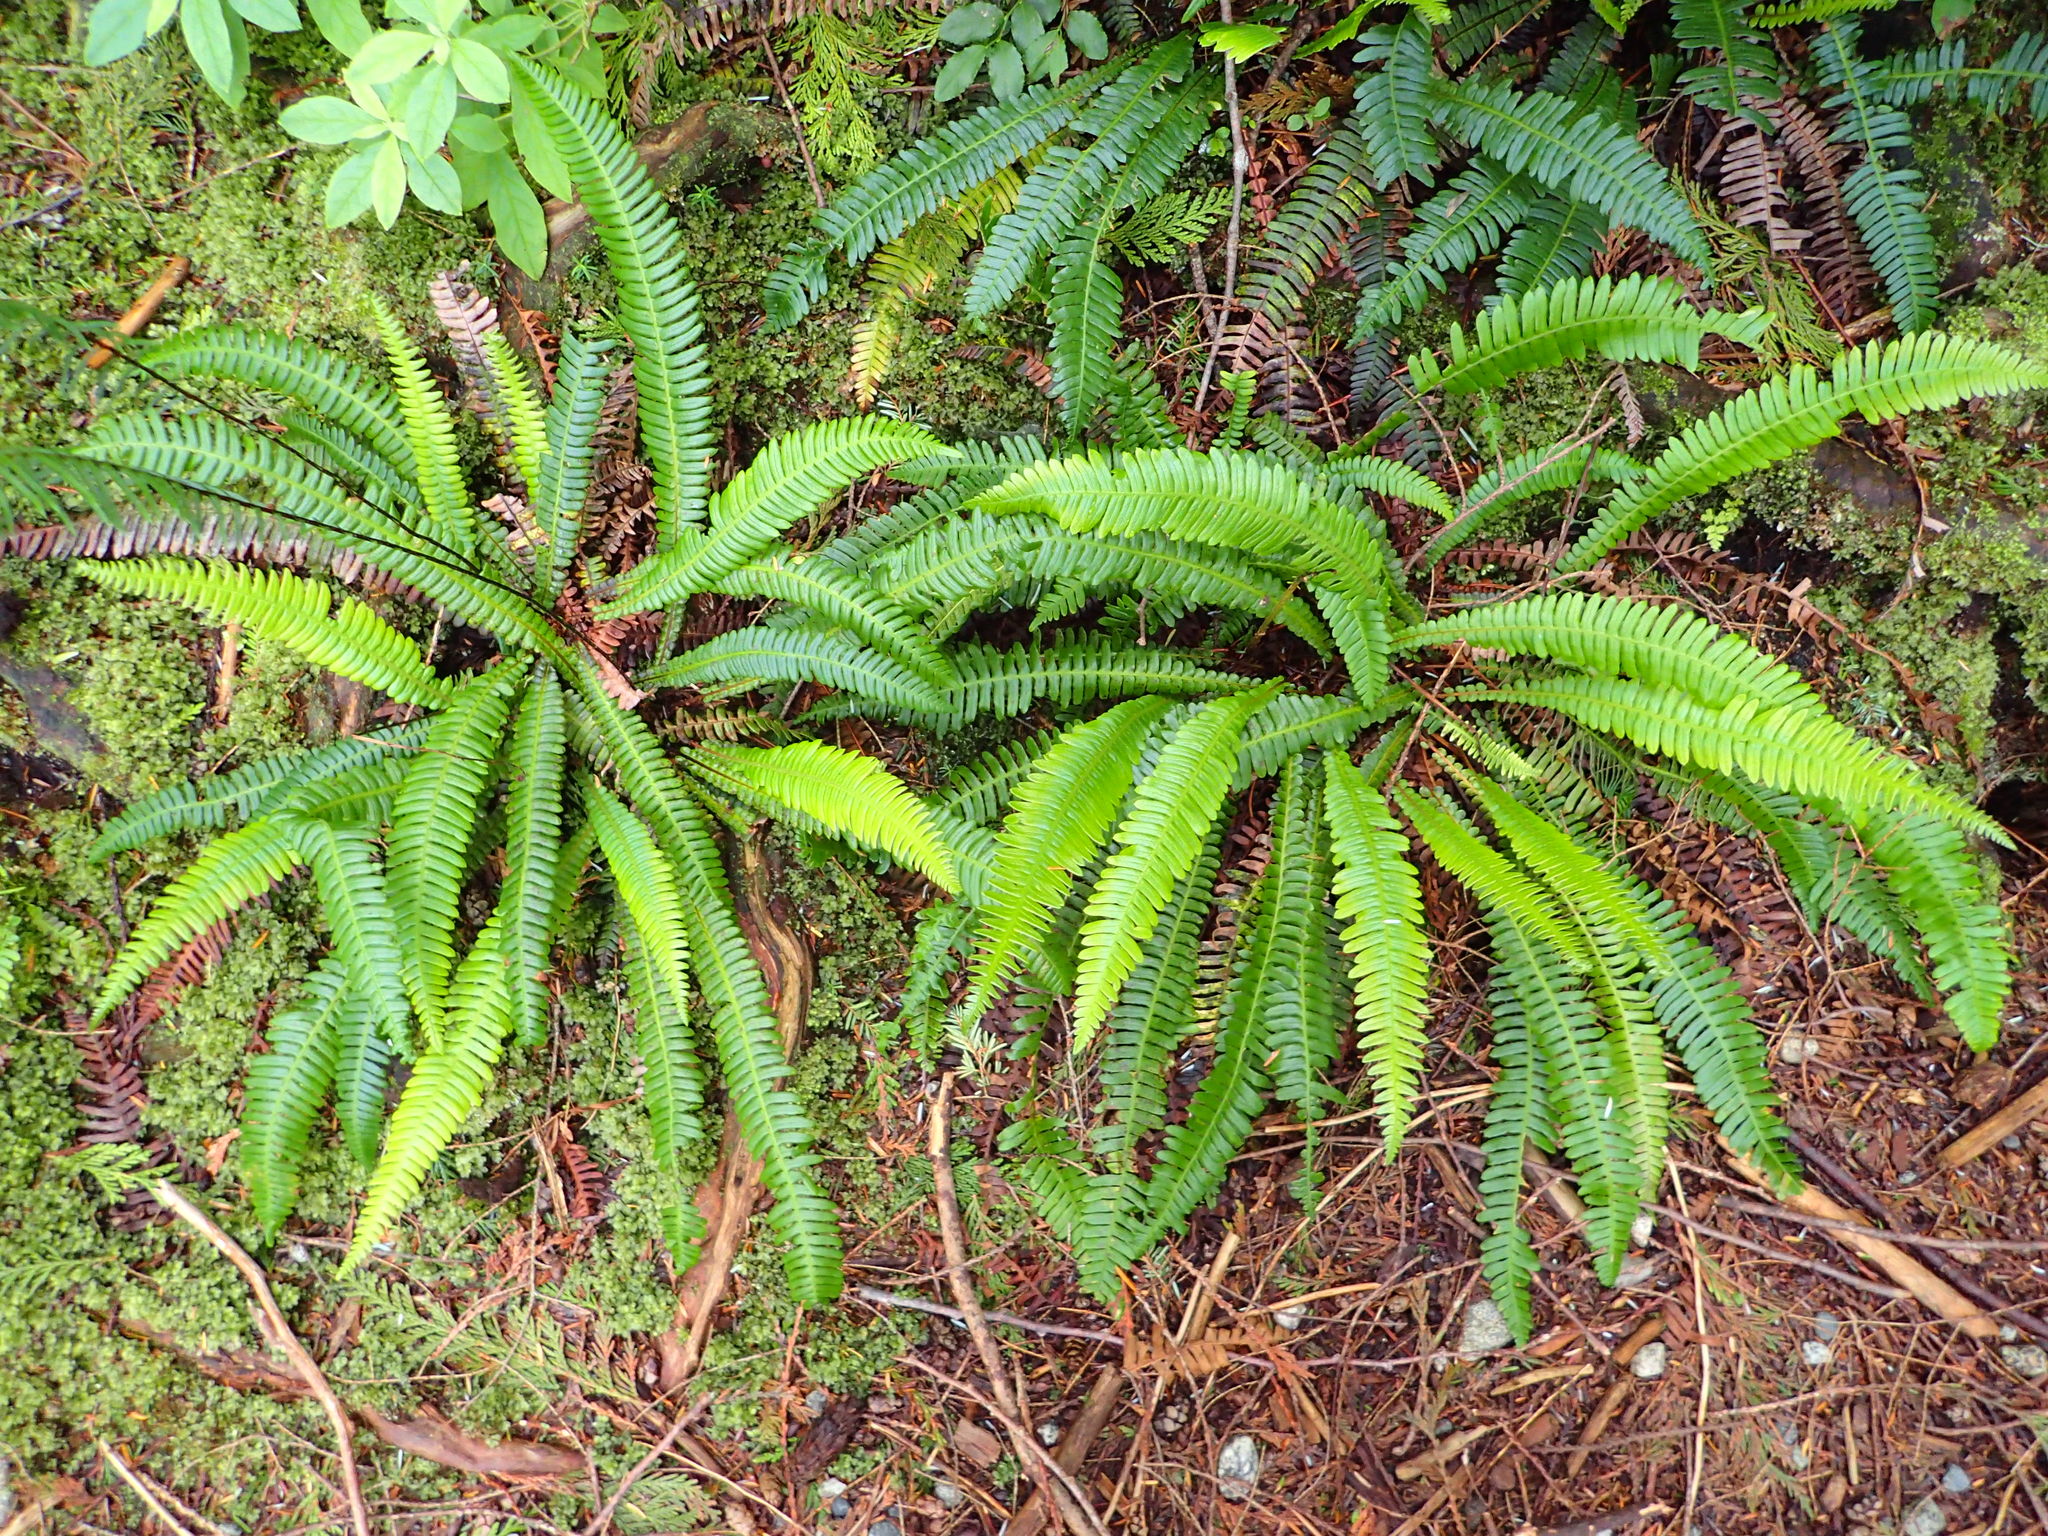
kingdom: Plantae
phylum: Tracheophyta
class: Polypodiopsida
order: Polypodiales
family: Blechnaceae
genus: Struthiopteris
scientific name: Struthiopteris spicant
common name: Deer fern
